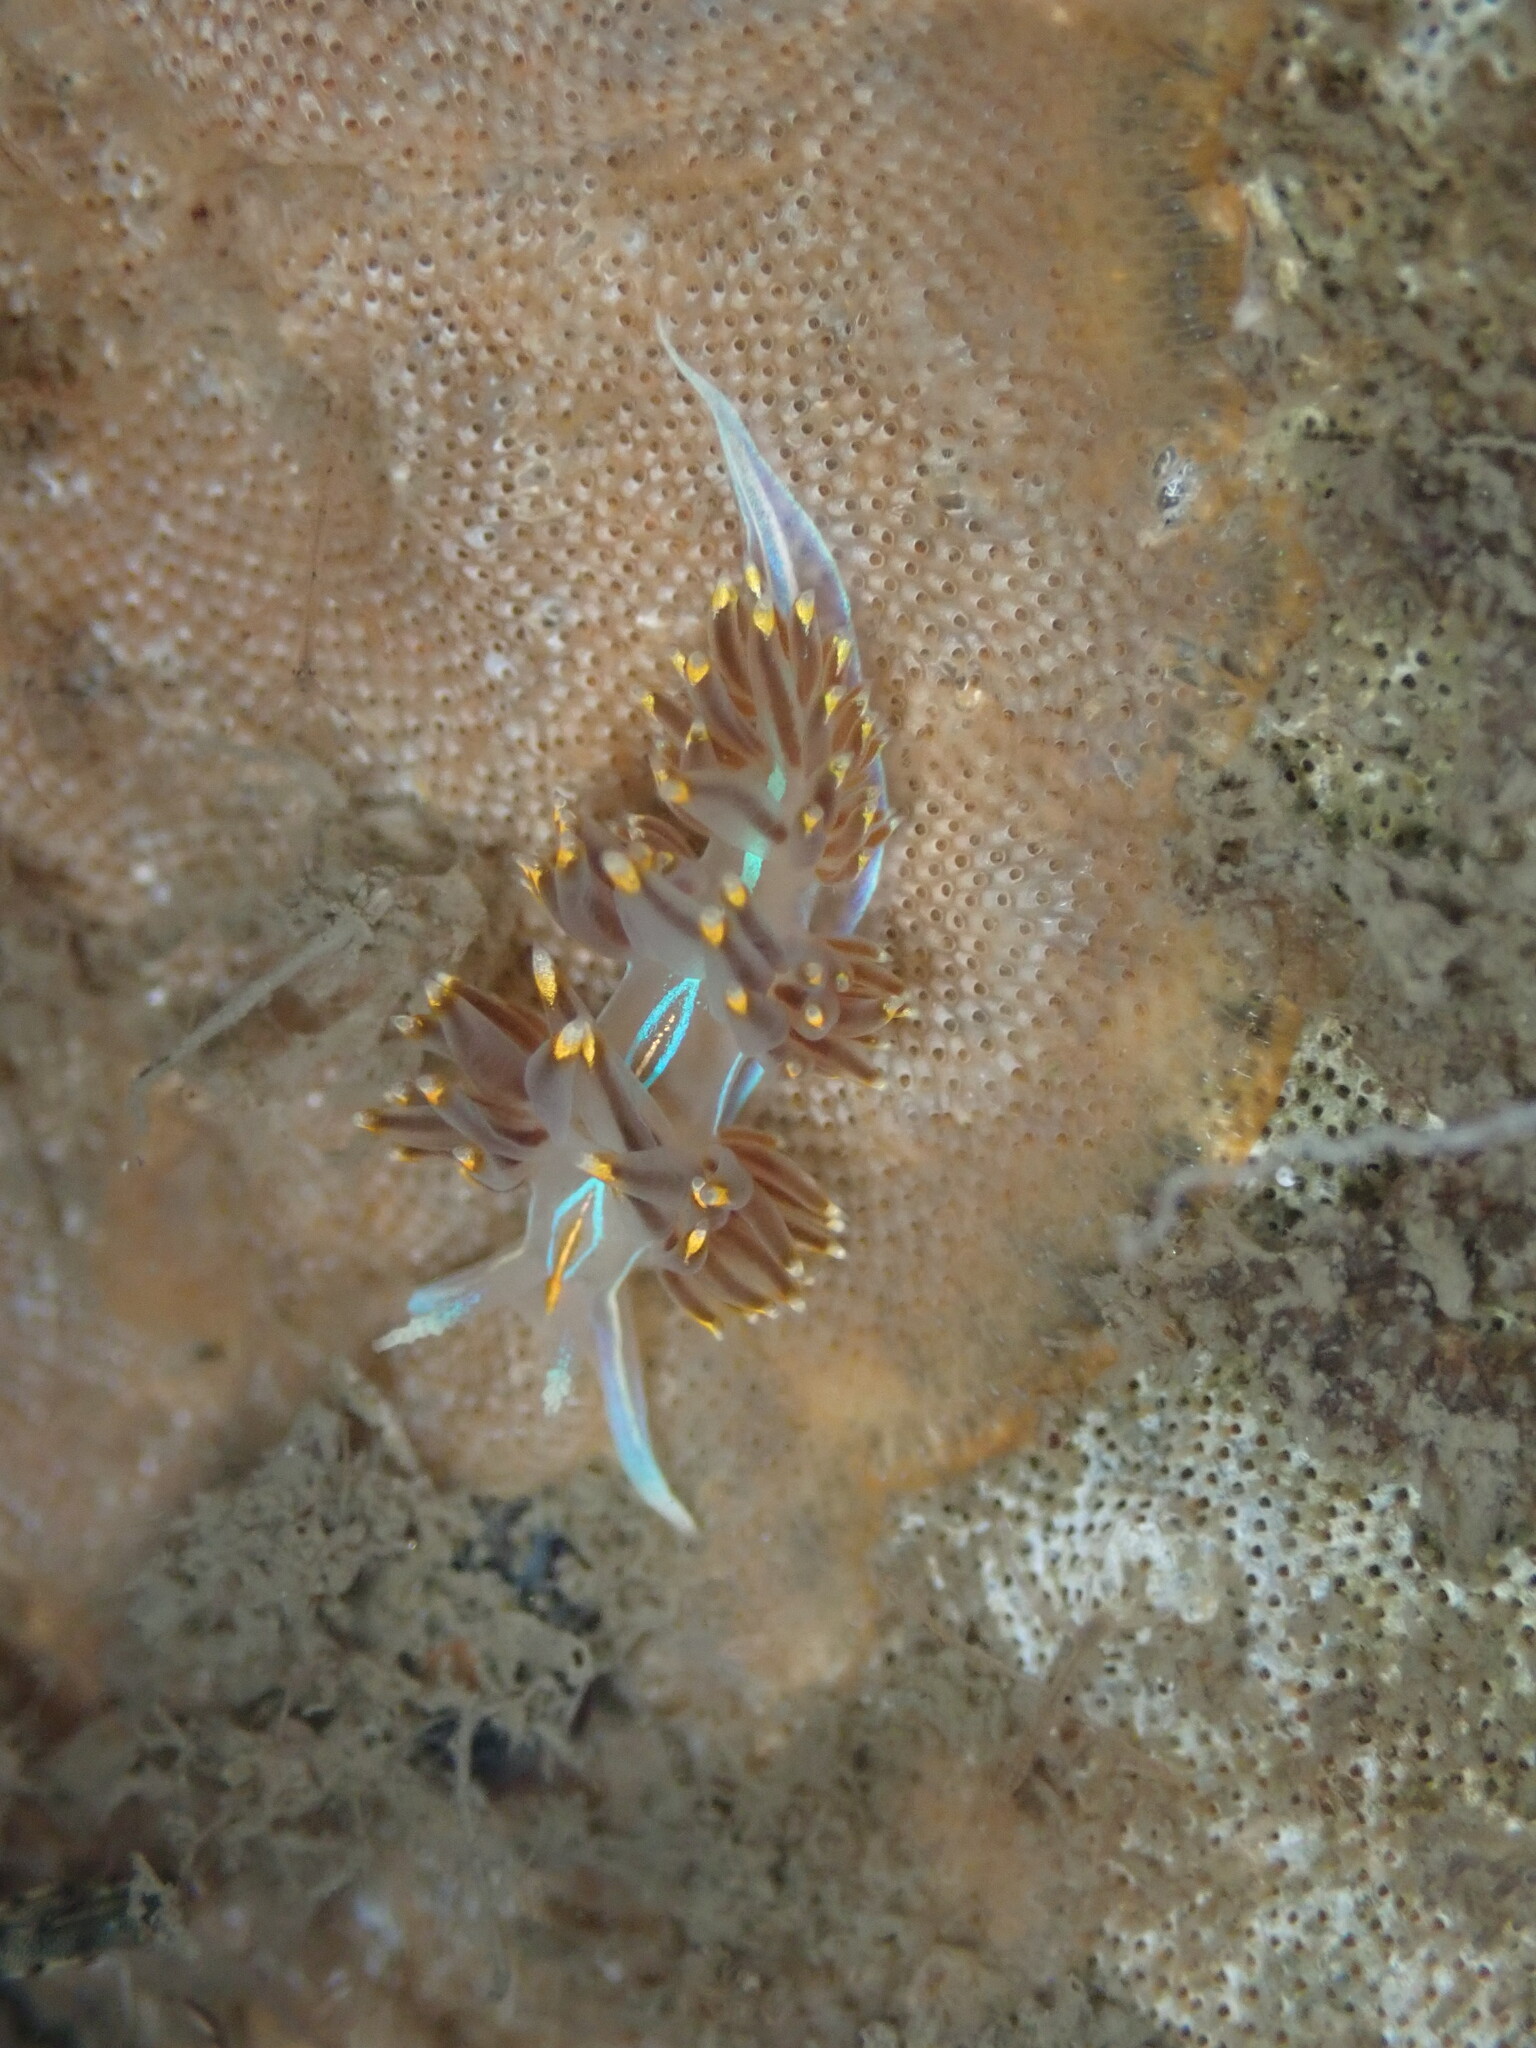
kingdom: Animalia
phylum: Mollusca
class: Gastropoda
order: Nudibranchia
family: Myrrhinidae
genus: Hermissenda
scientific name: Hermissenda opalescens
